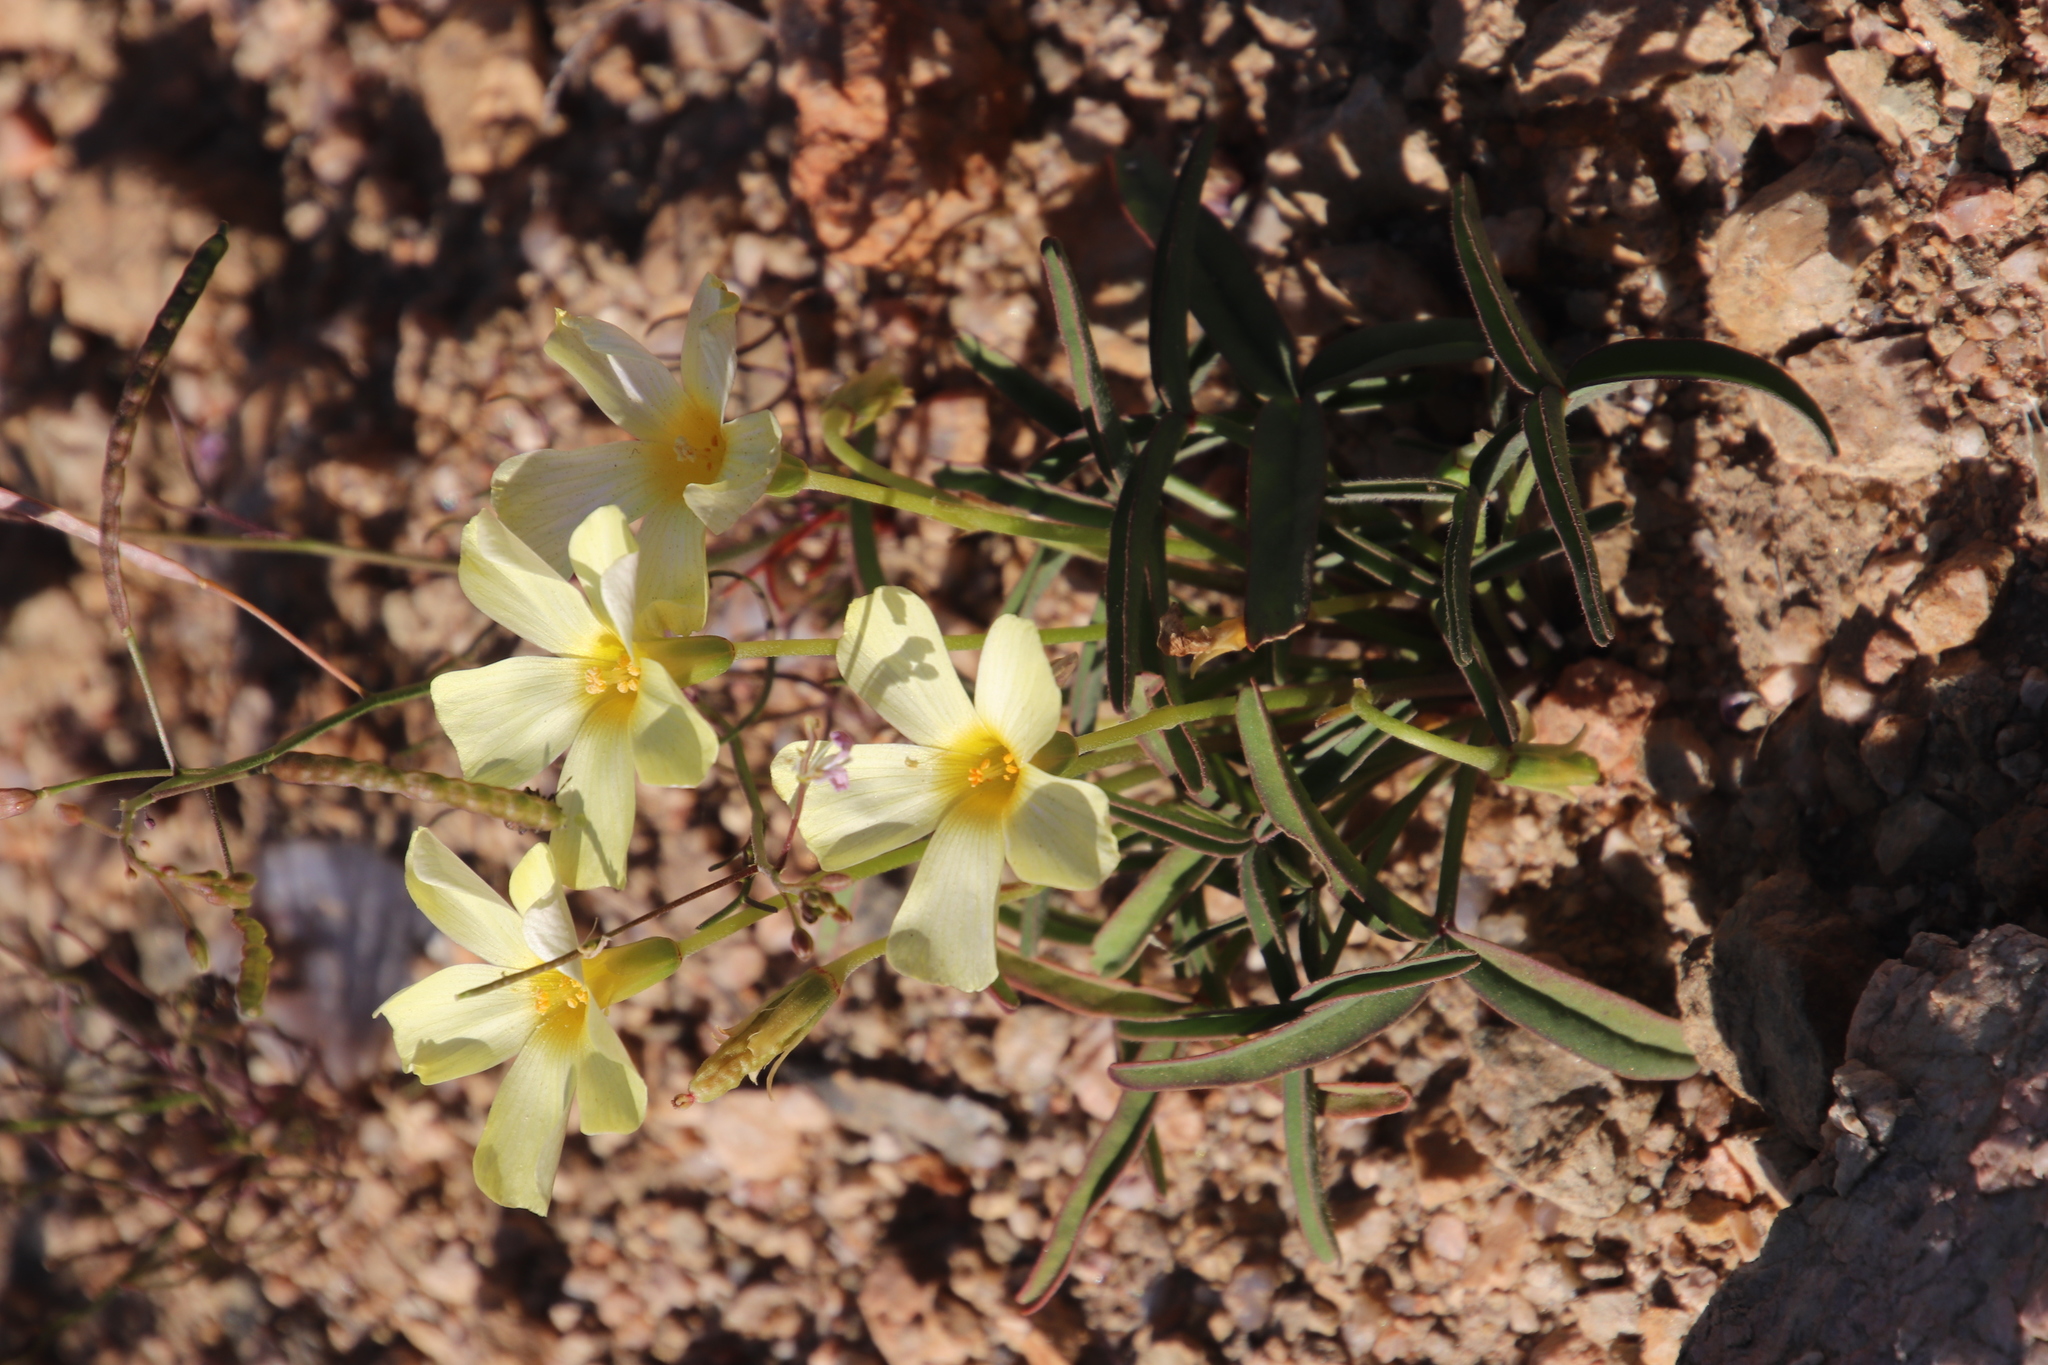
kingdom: Plantae
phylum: Tracheophyta
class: Magnoliopsida
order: Oxalidales
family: Oxalidaceae
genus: Oxalis
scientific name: Oxalis obtusa
